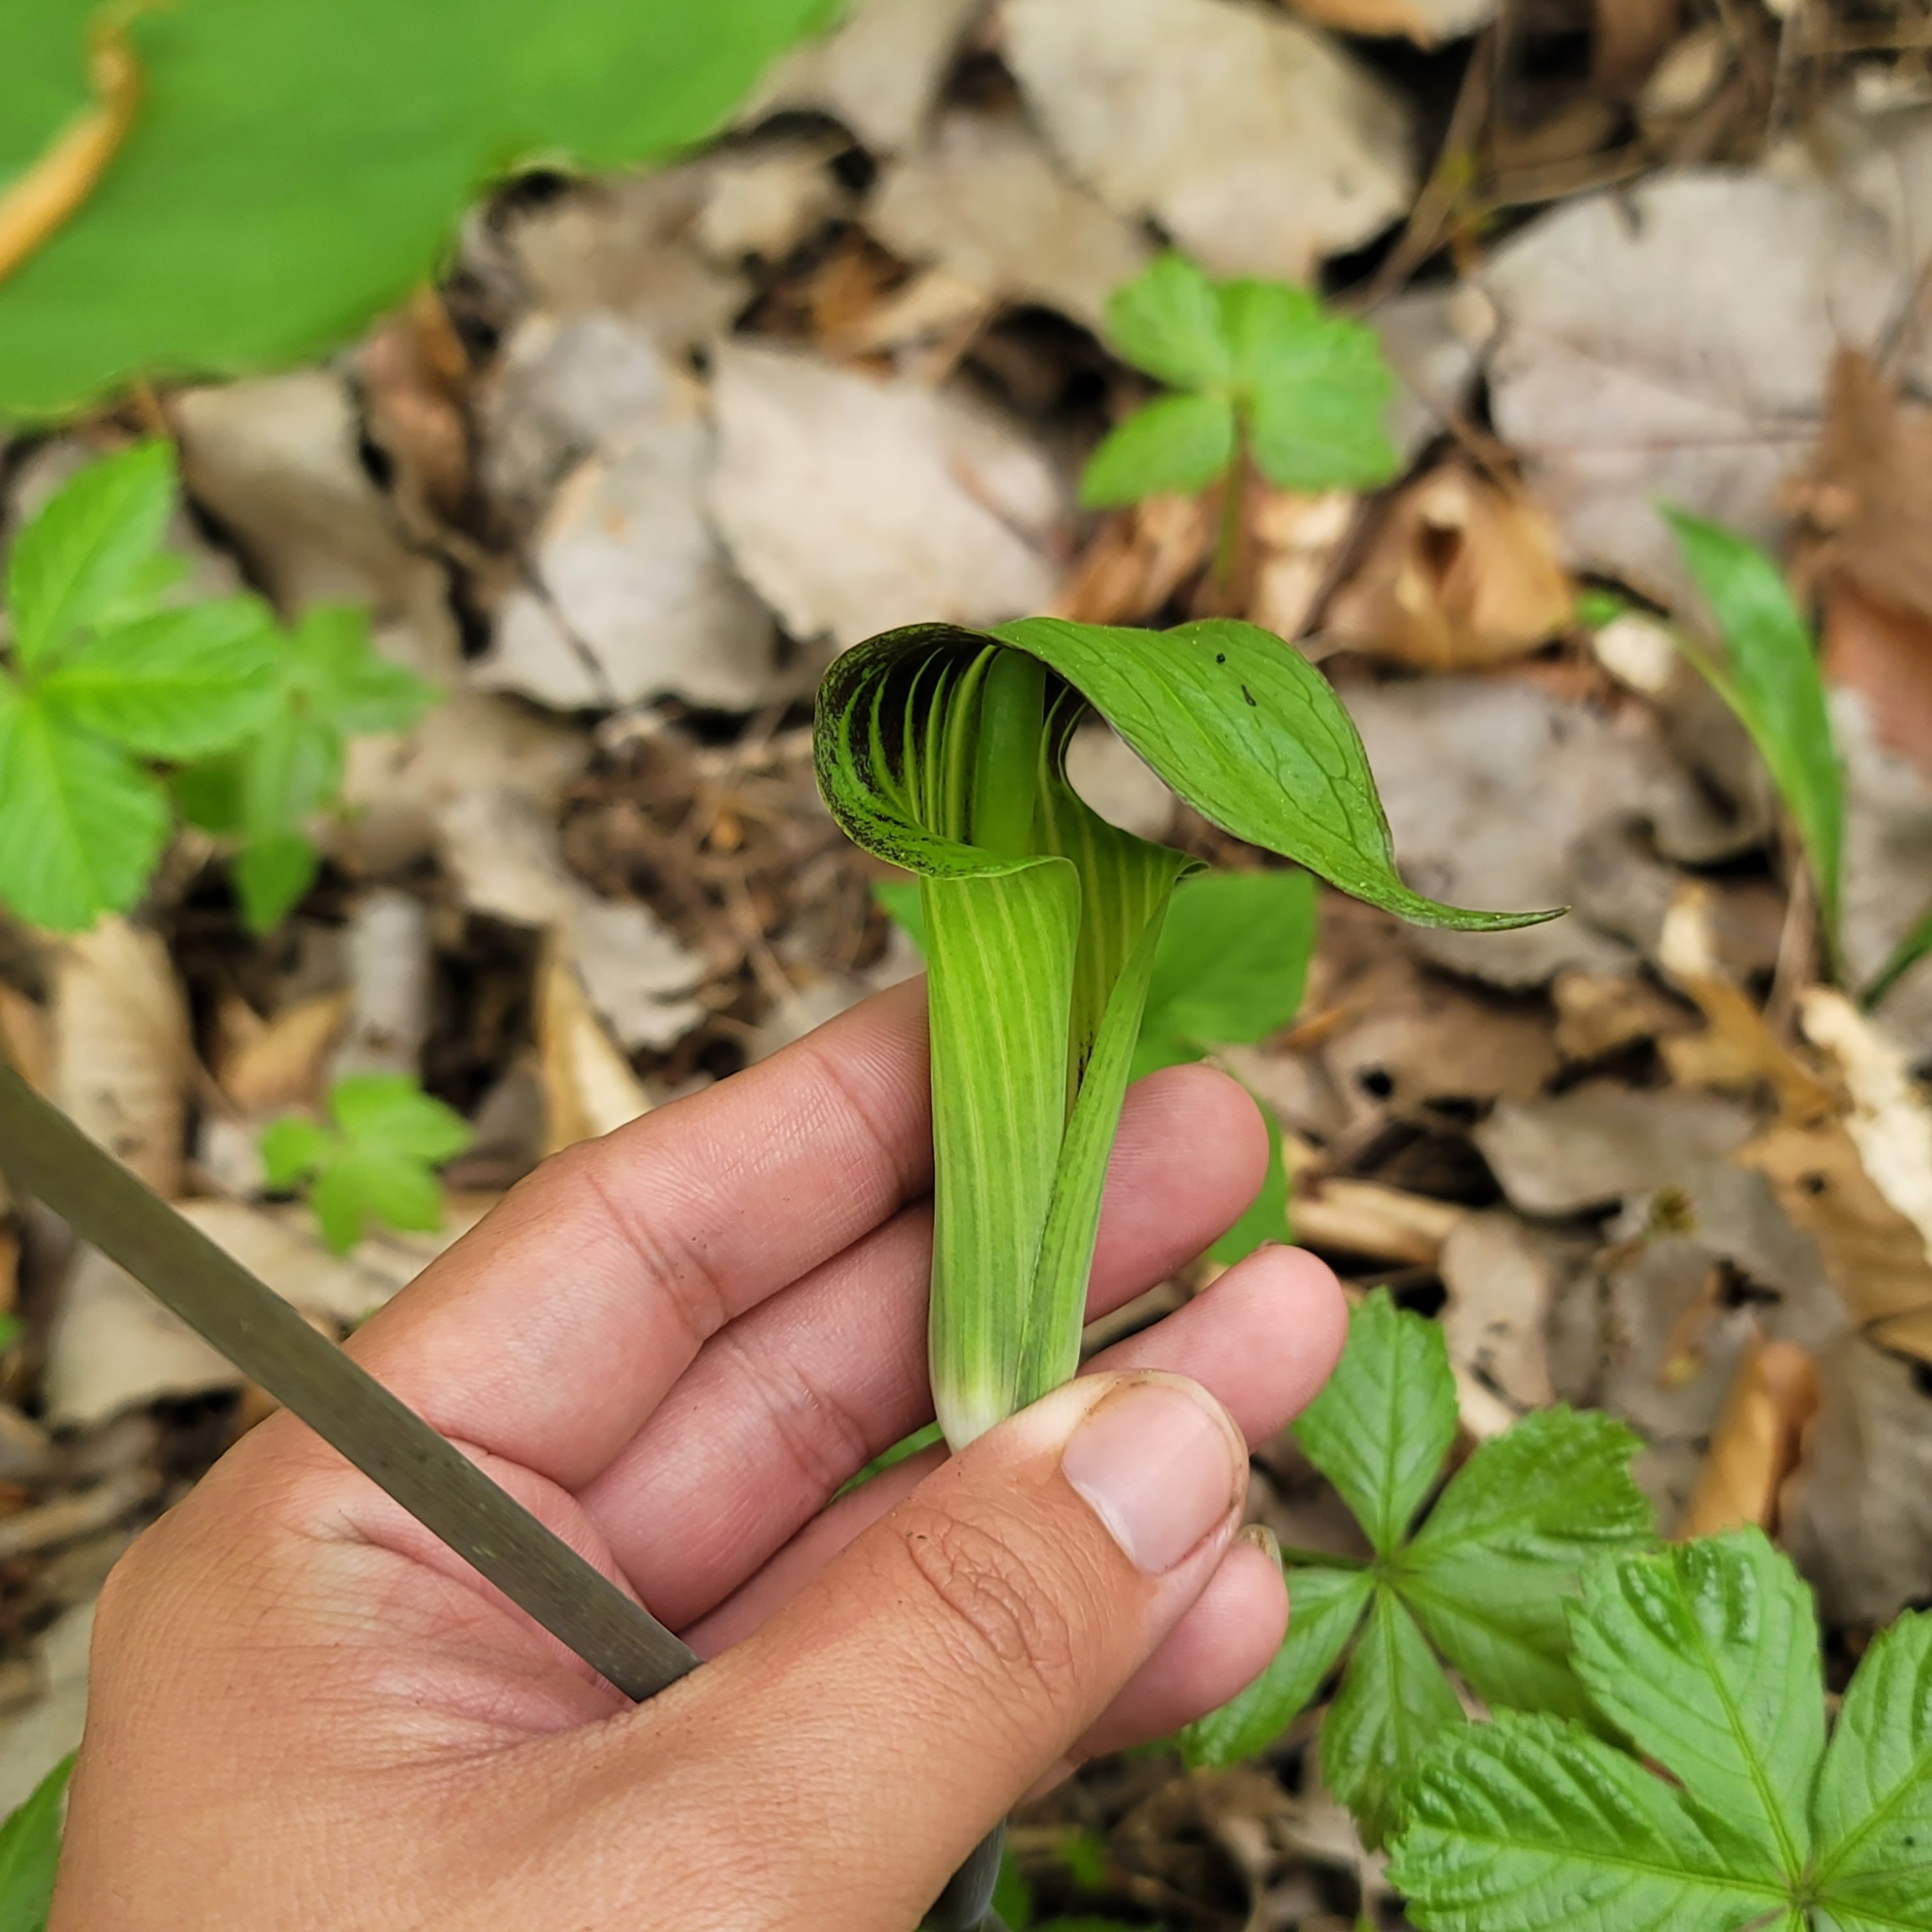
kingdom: Plantae
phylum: Tracheophyta
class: Liliopsida
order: Alismatales
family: Araceae
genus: Arisaema
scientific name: Arisaema triphyllum
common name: Jack-in-the-pulpit
